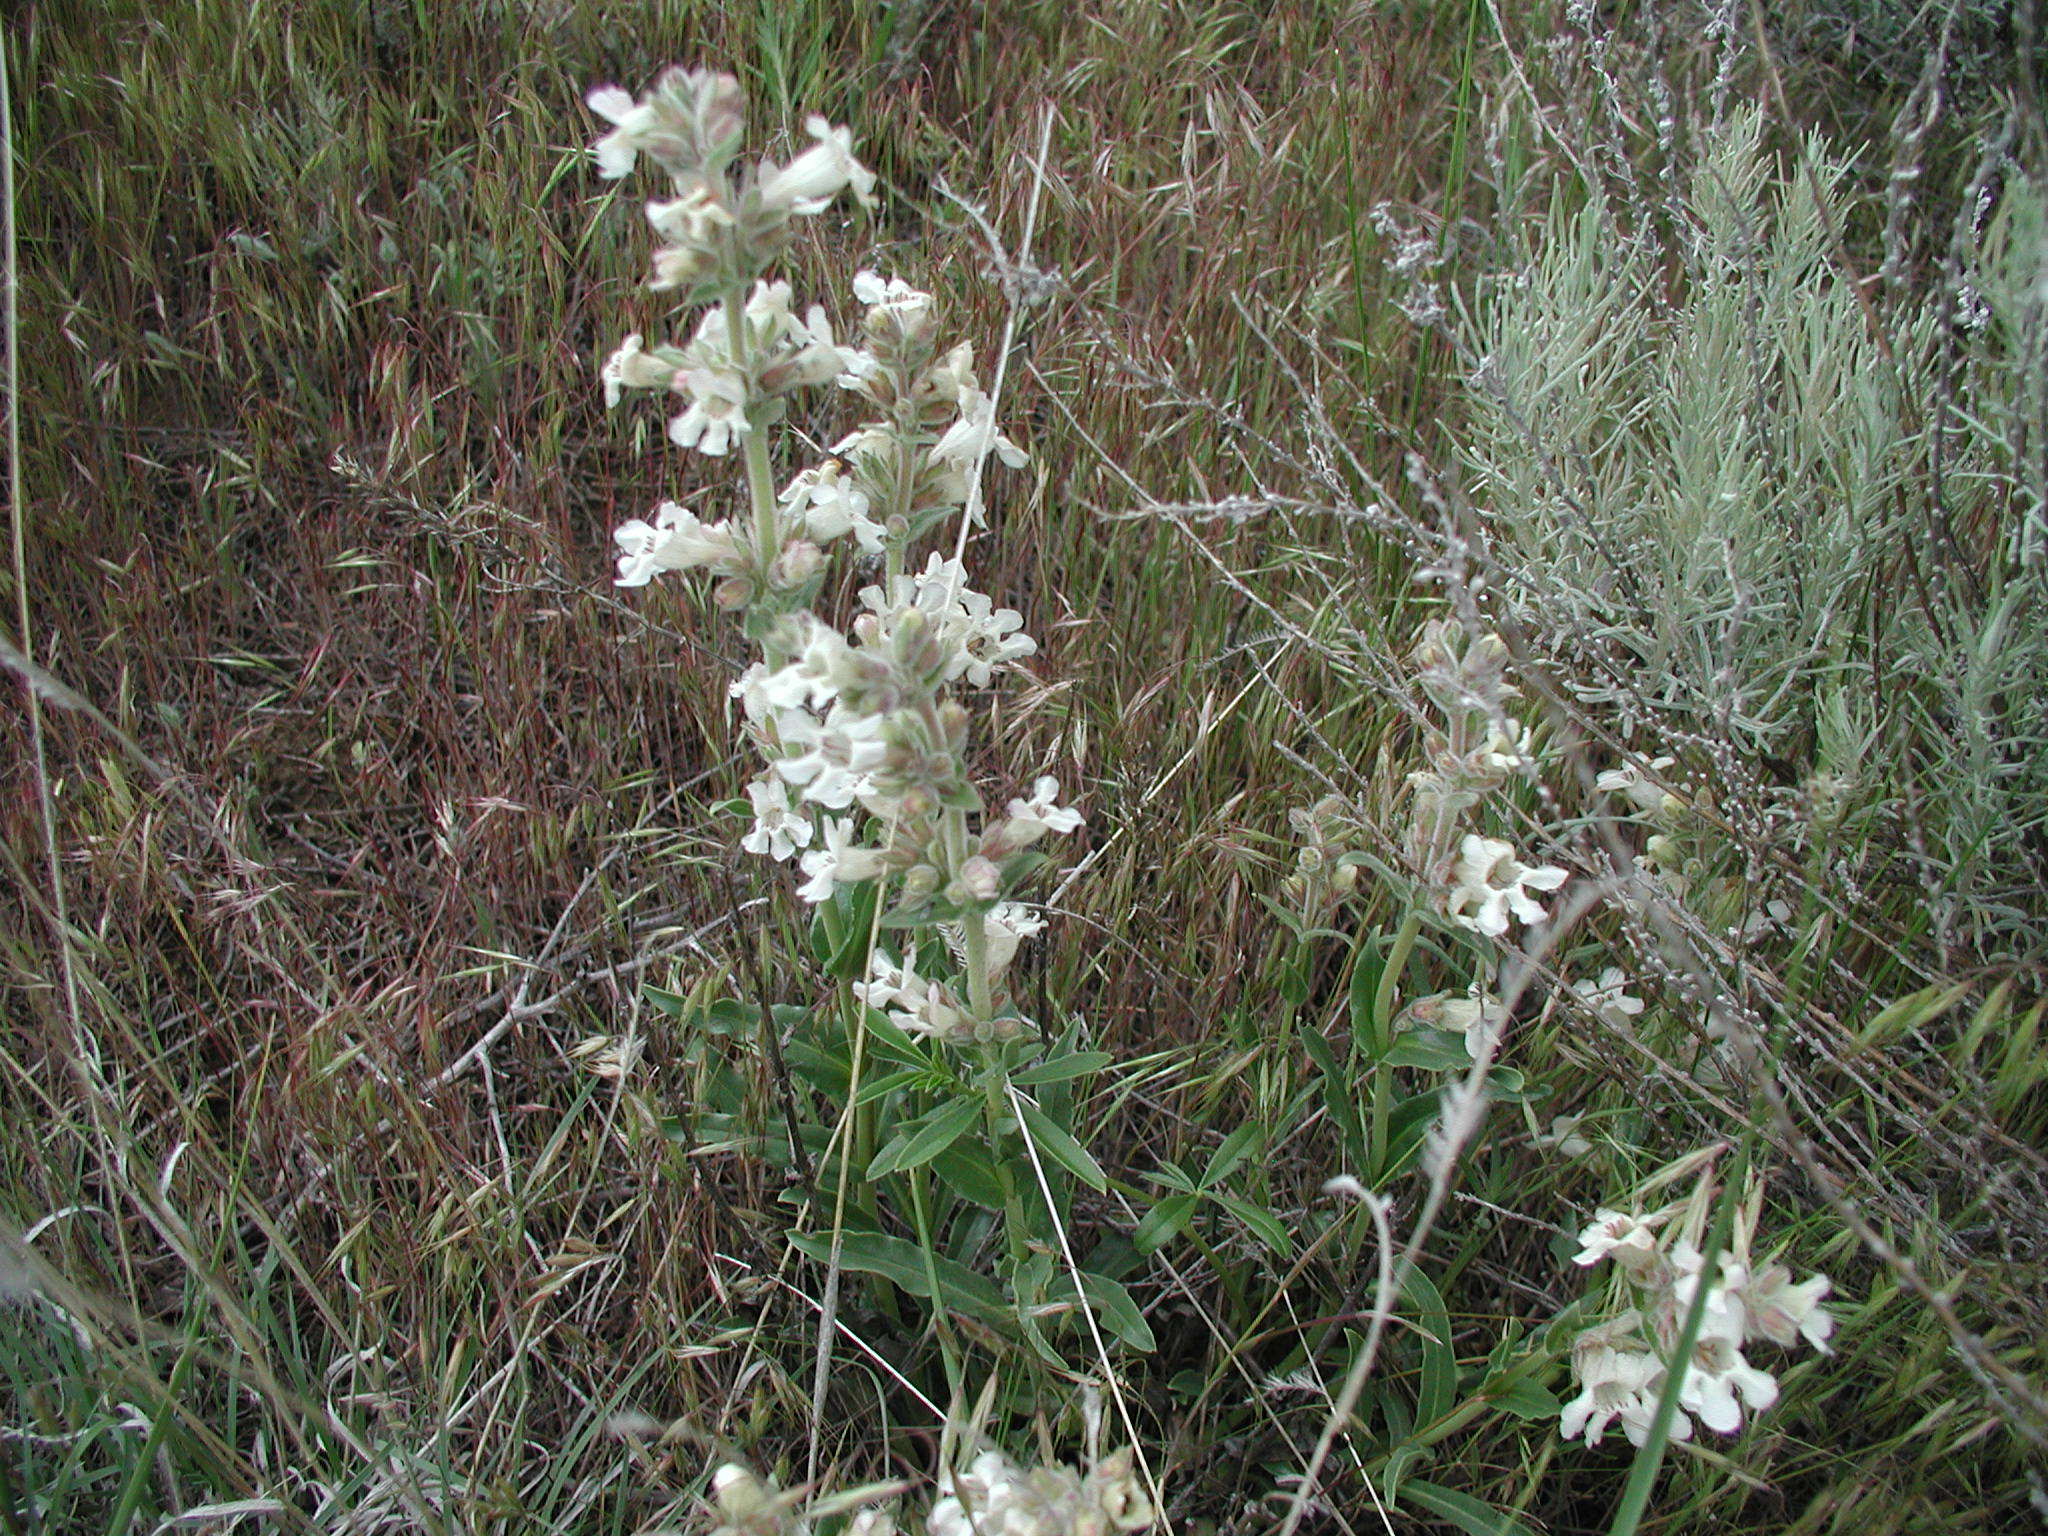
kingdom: Plantae
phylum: Tracheophyta
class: Magnoliopsida
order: Lamiales
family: Plantaginaceae
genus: Penstemon
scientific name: Penstemon albidus
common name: White beardtongue
